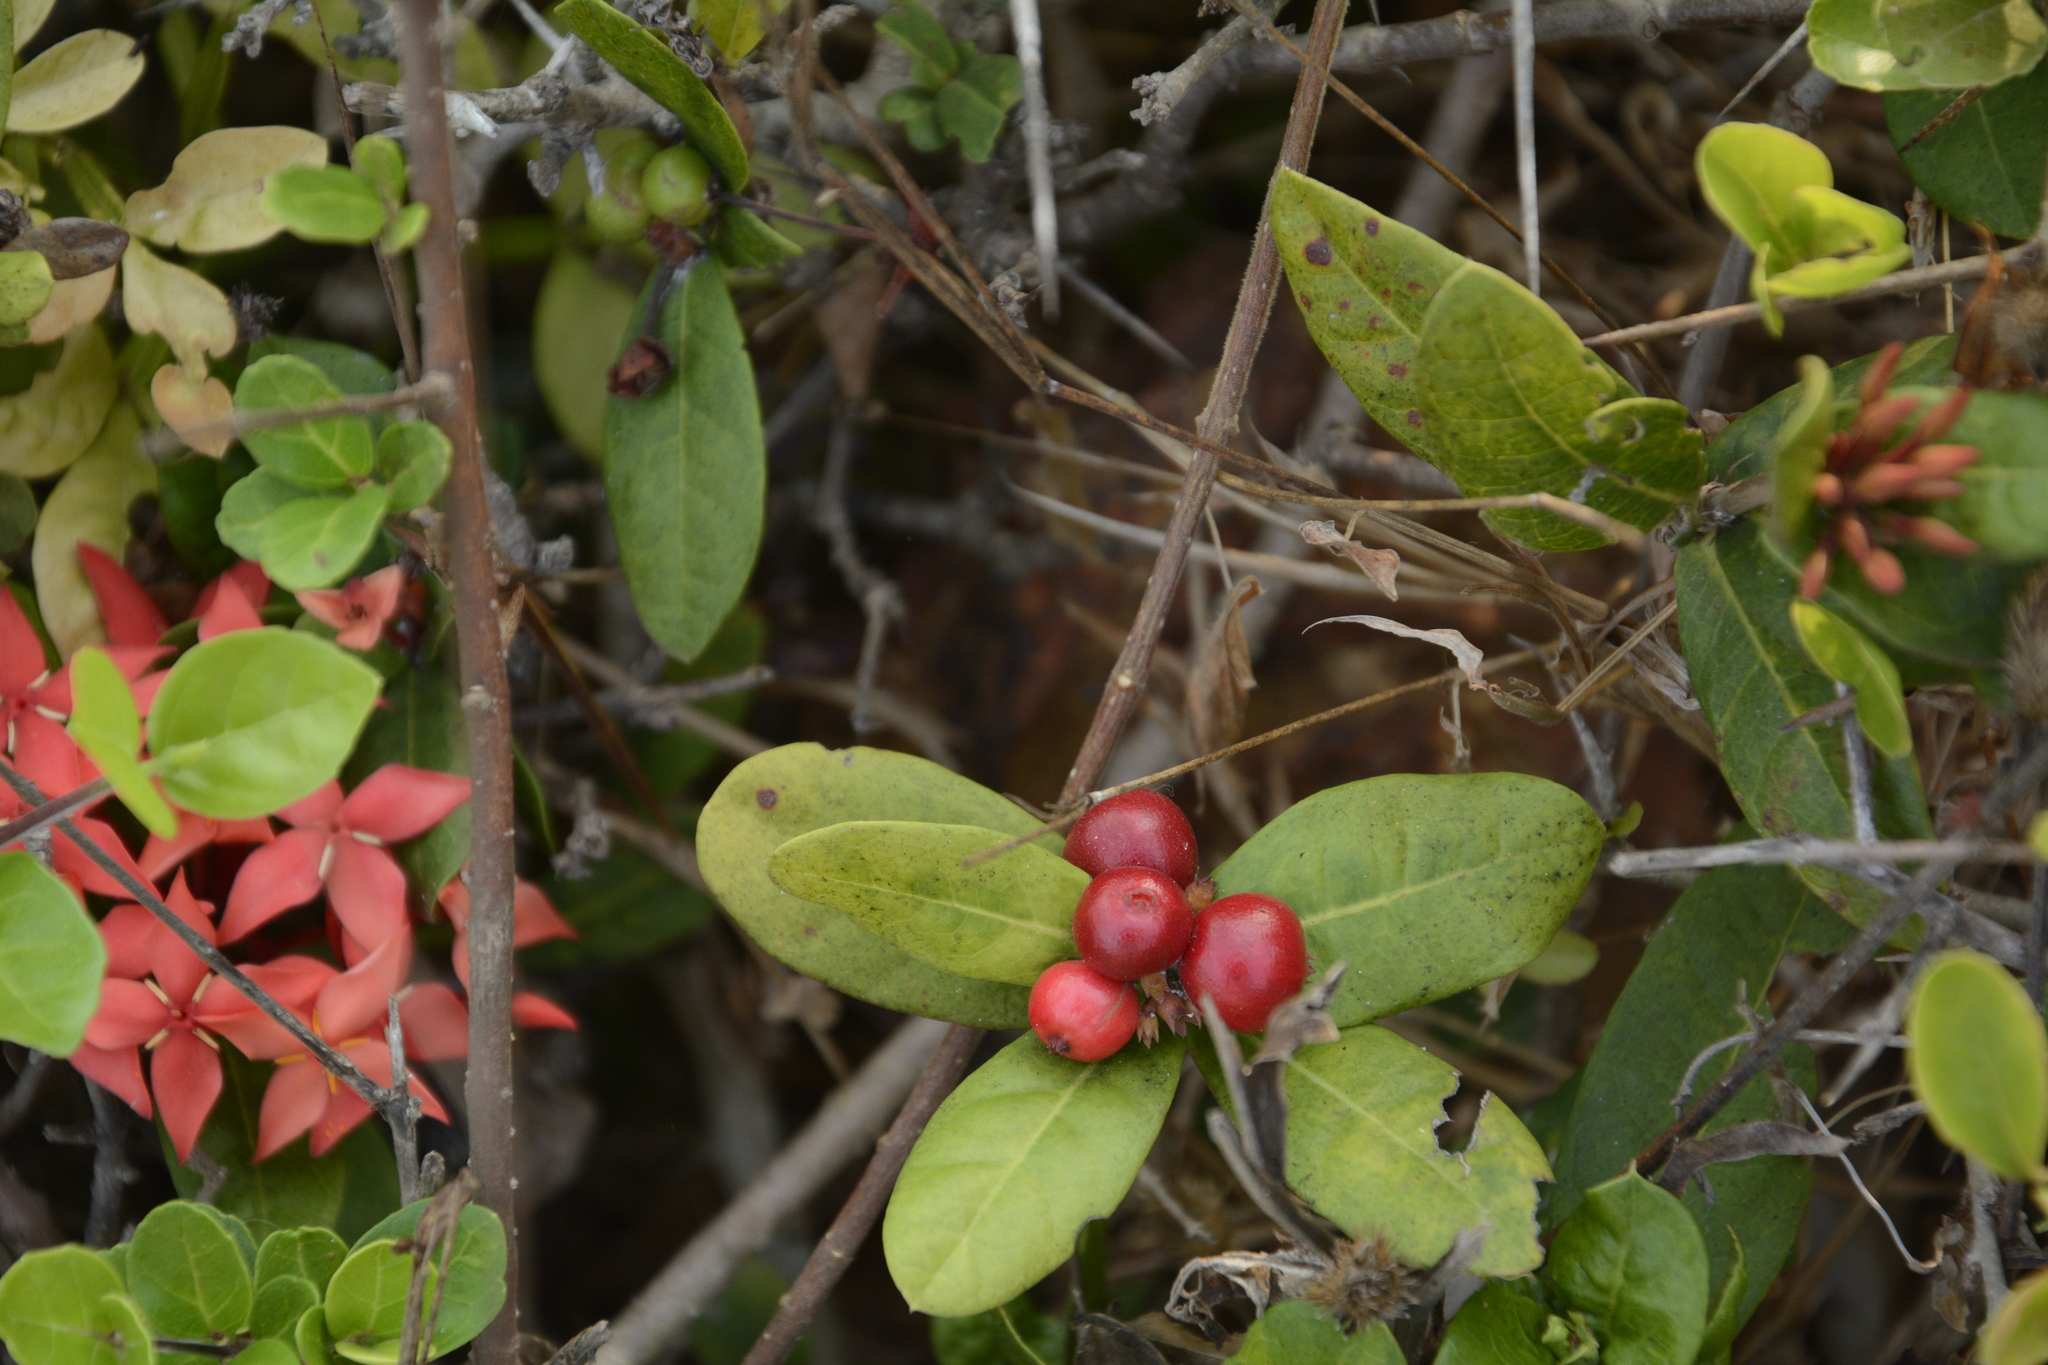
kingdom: Plantae
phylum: Tracheophyta
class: Magnoliopsida
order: Gentianales
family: Rubiaceae
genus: Ixora
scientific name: Ixora coccinea
